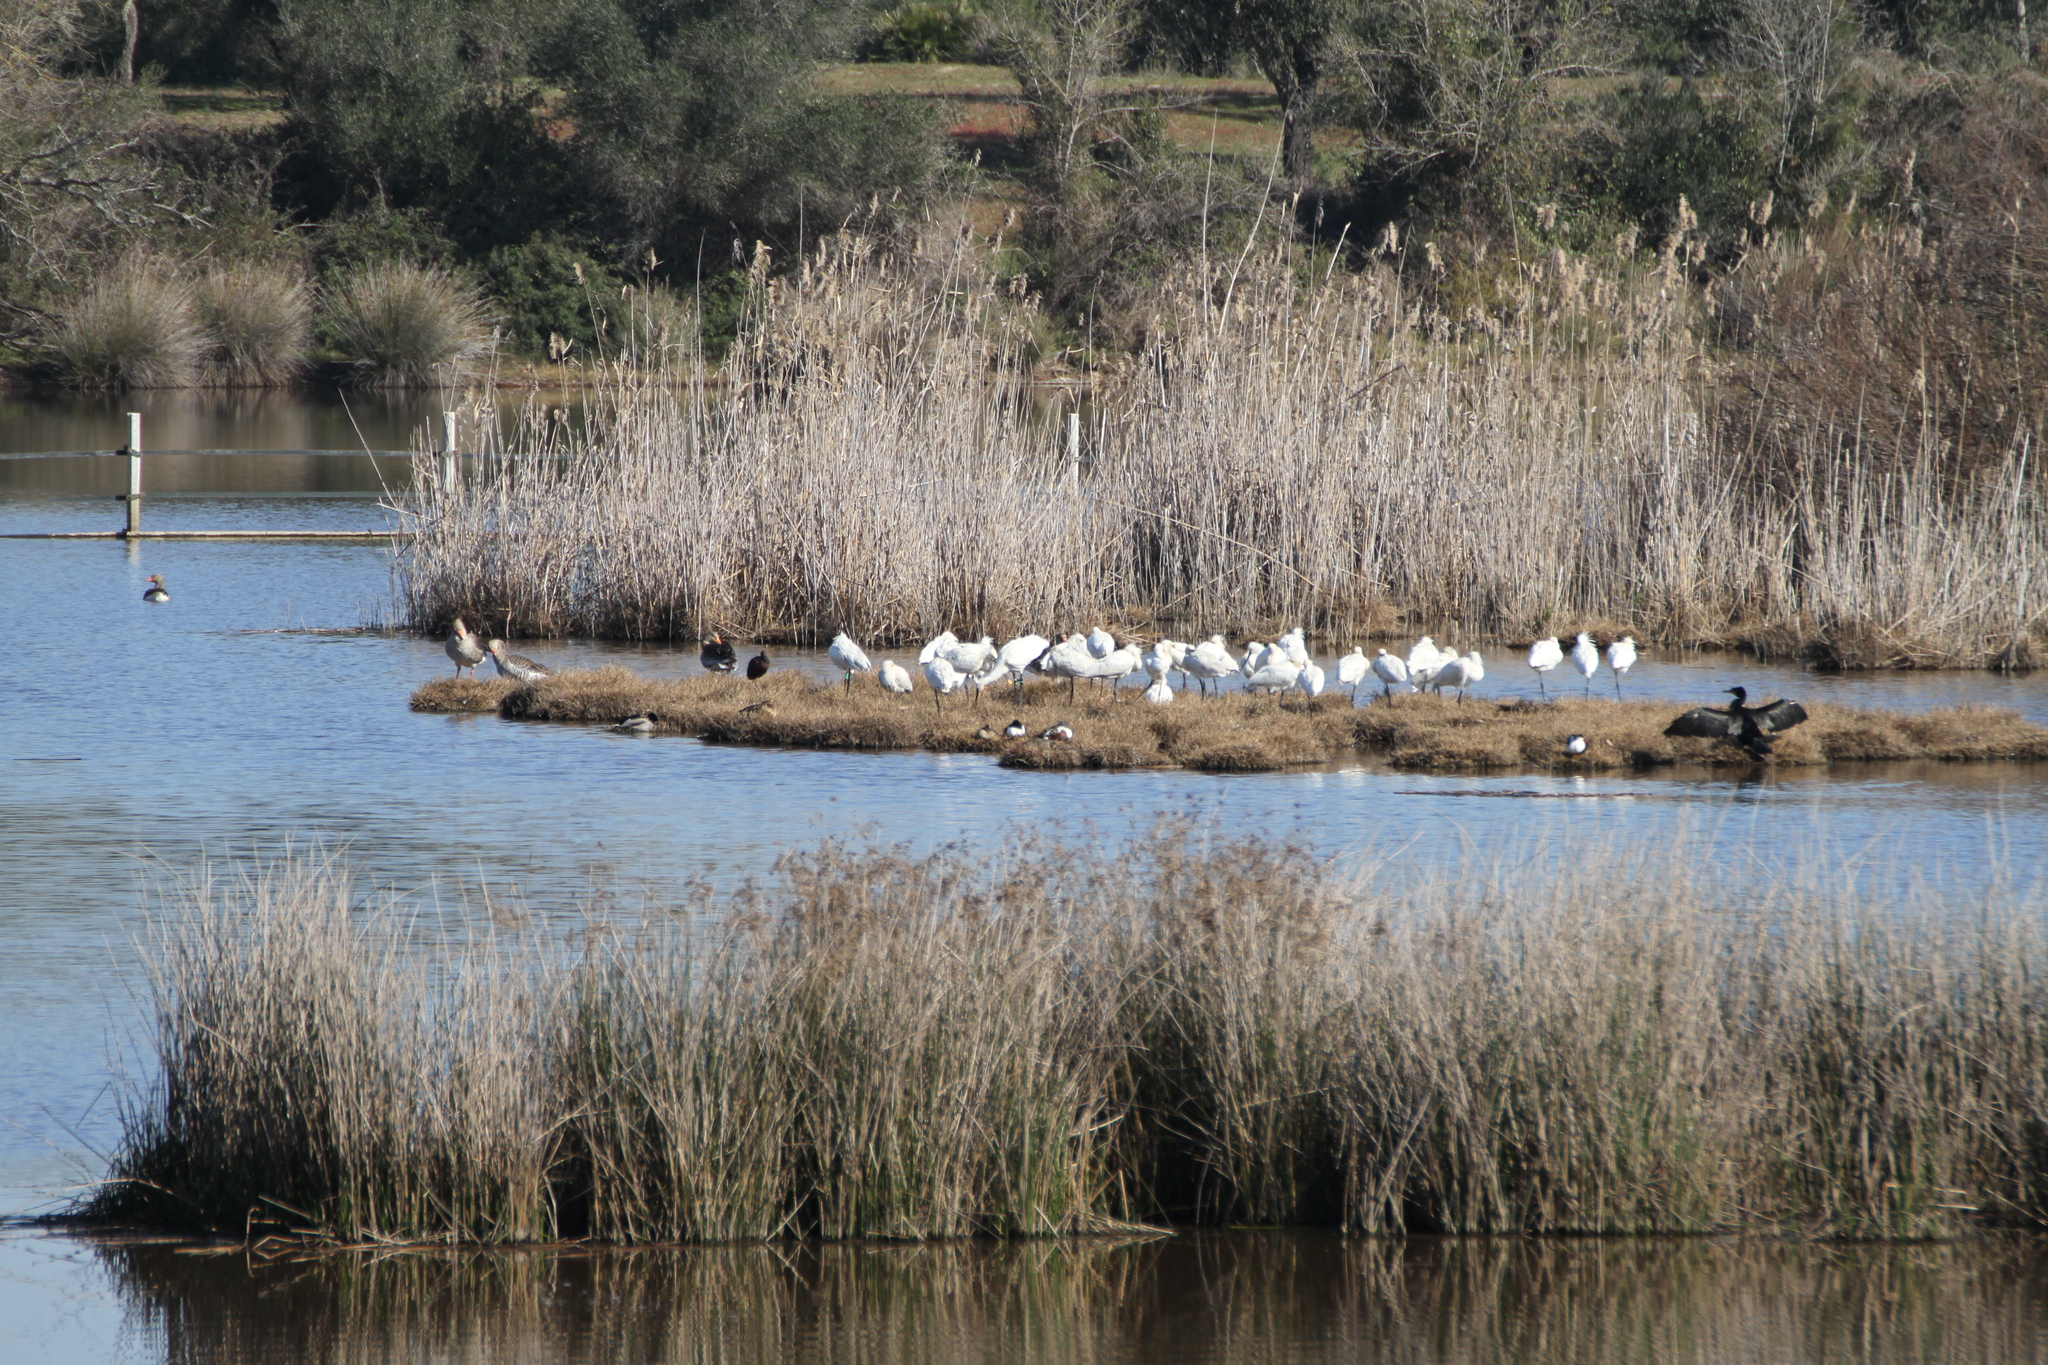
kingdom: Animalia
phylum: Chordata
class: Aves
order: Pelecaniformes
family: Threskiornithidae
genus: Platalea
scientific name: Platalea leucorodia
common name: Eurasian spoonbill
